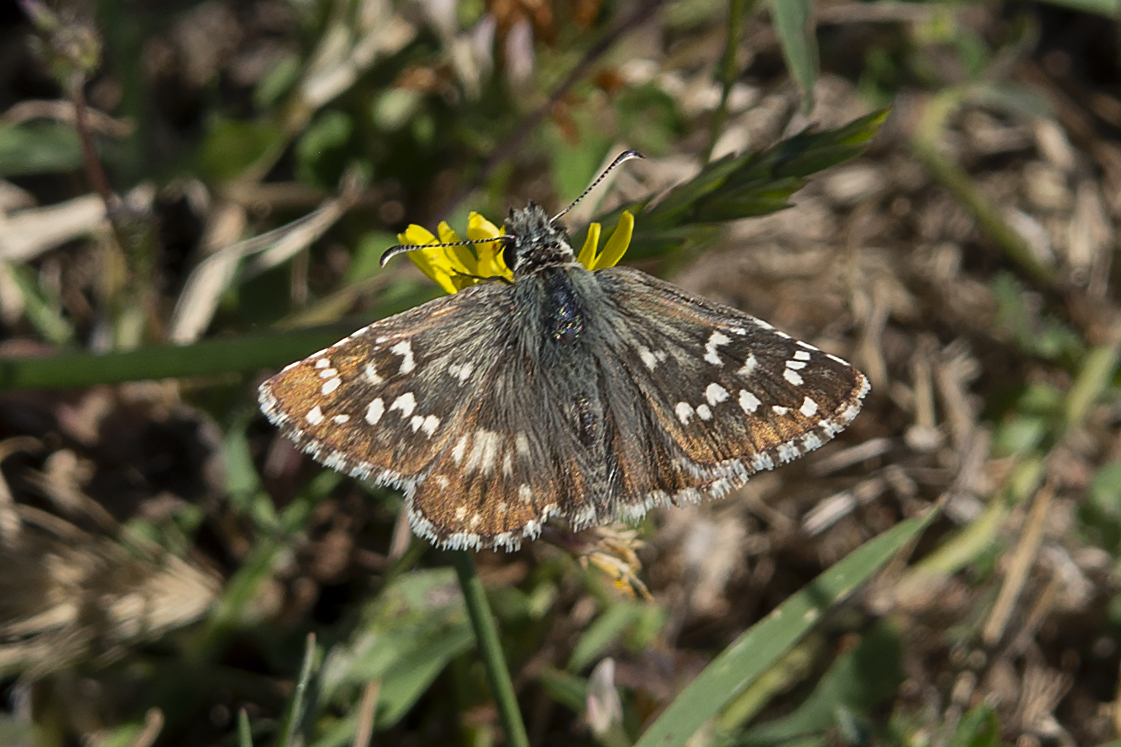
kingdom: Animalia
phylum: Arthropoda
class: Insecta
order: Lepidoptera
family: Hesperiidae
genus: Pyrgus
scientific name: Pyrgus armoricanus
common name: Oberthür's grizzled skipper
